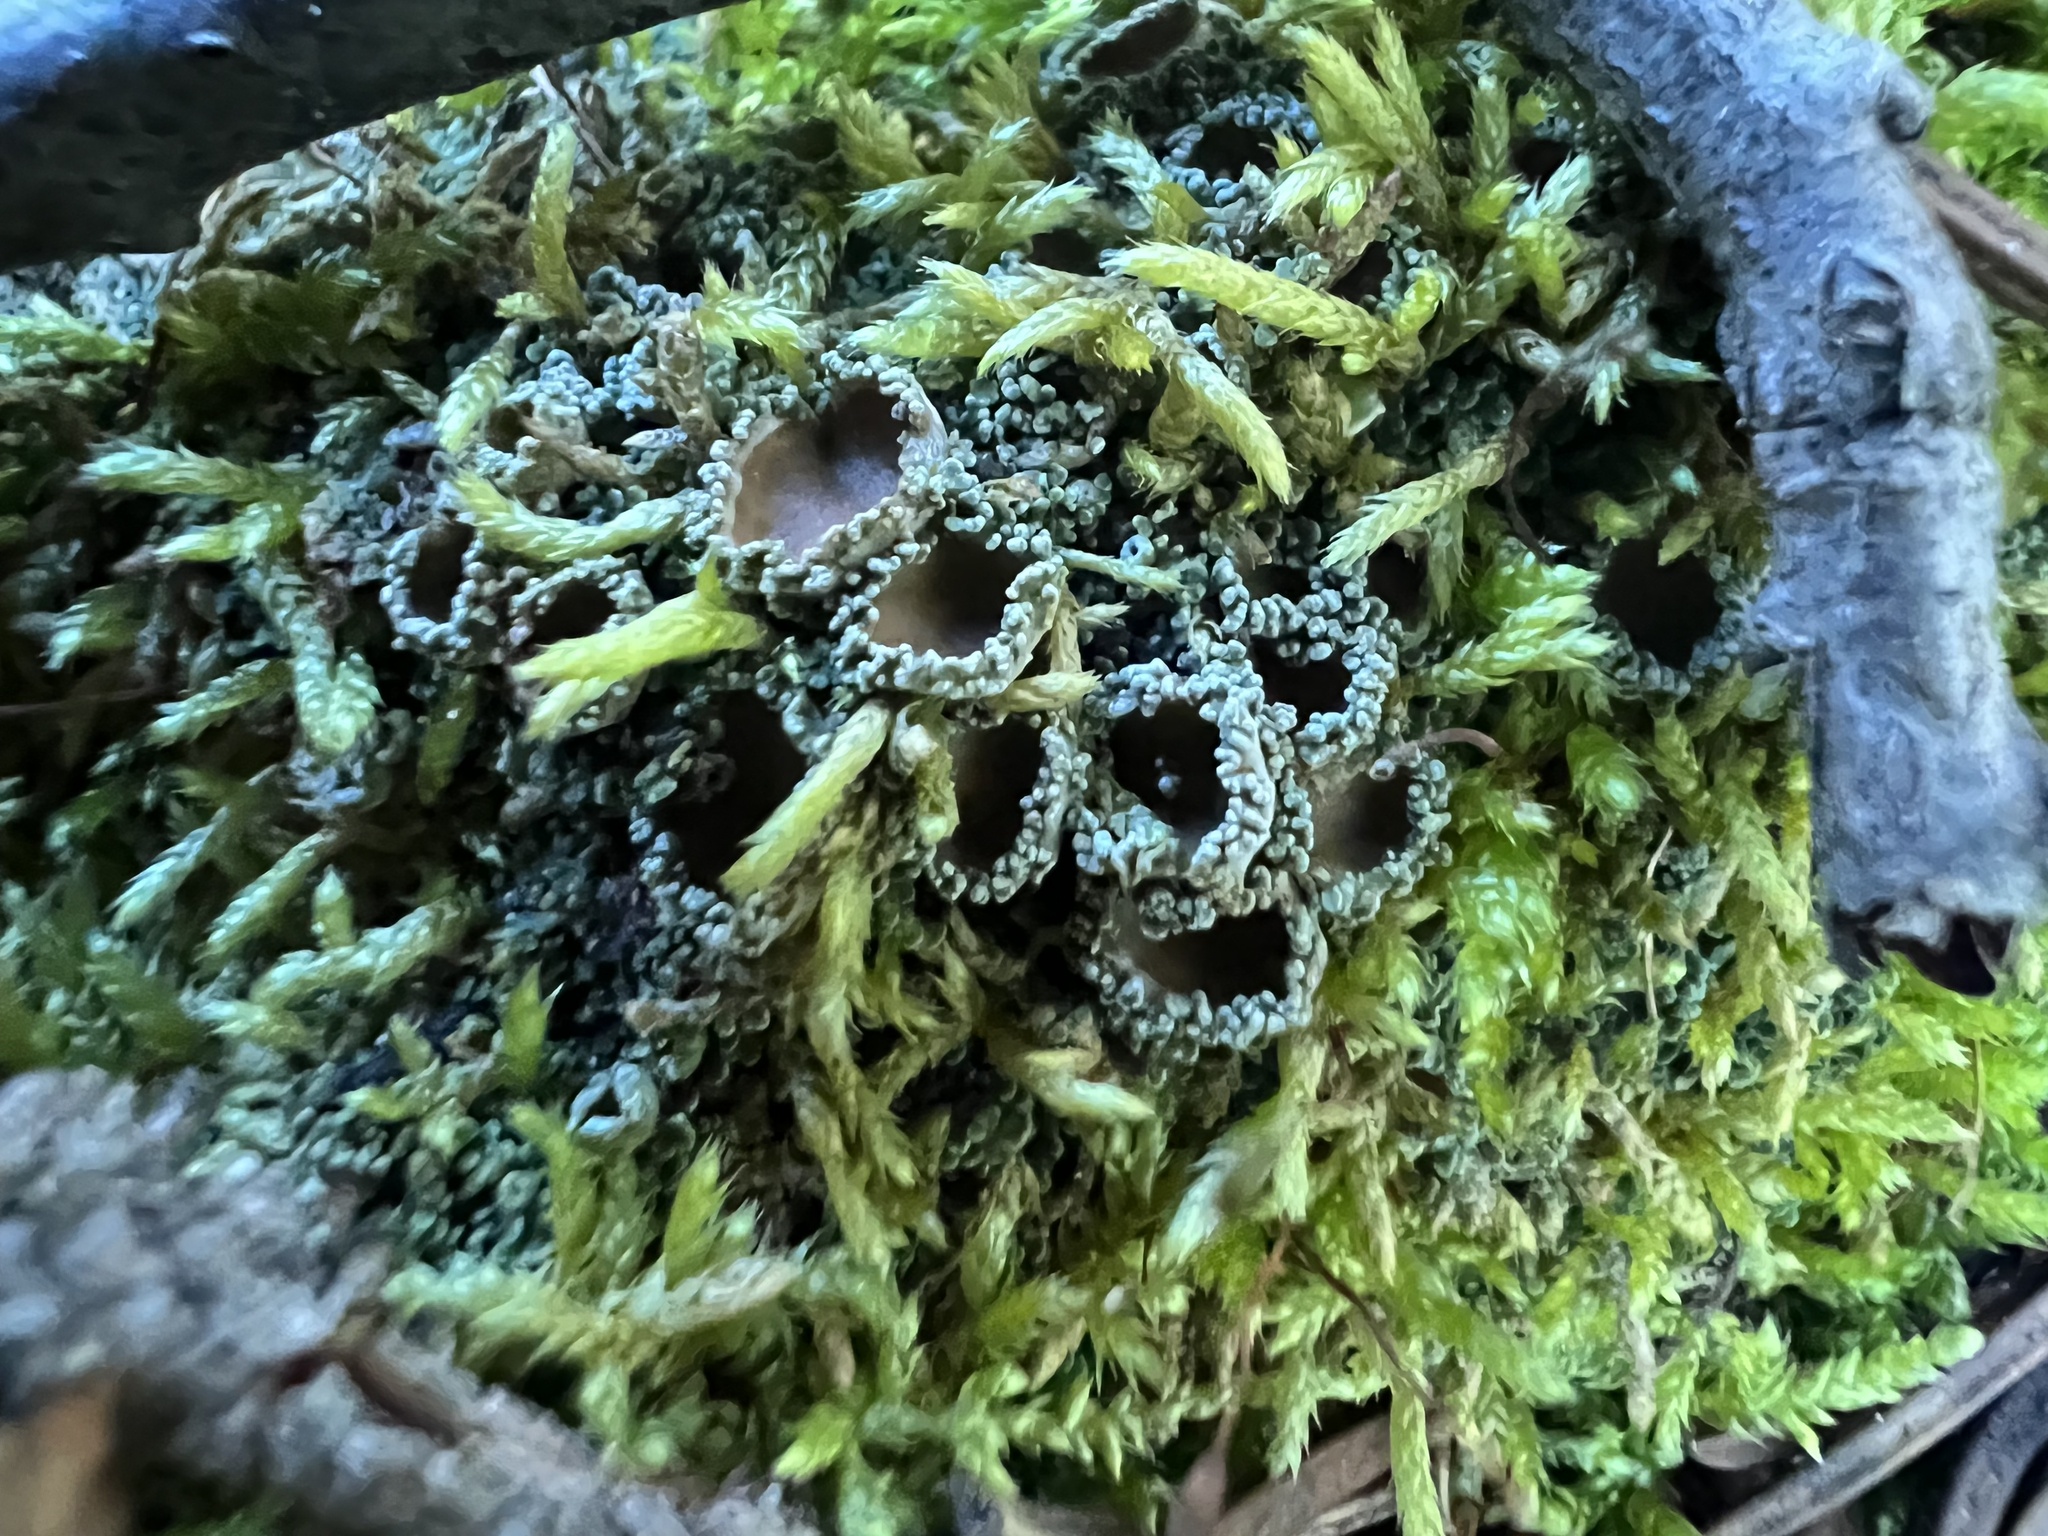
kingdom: Fungi
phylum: Ascomycota
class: Lecanoromycetes
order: Peltigerales
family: Pannariaceae
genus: Psoroma
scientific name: Psoroma hypnorum
